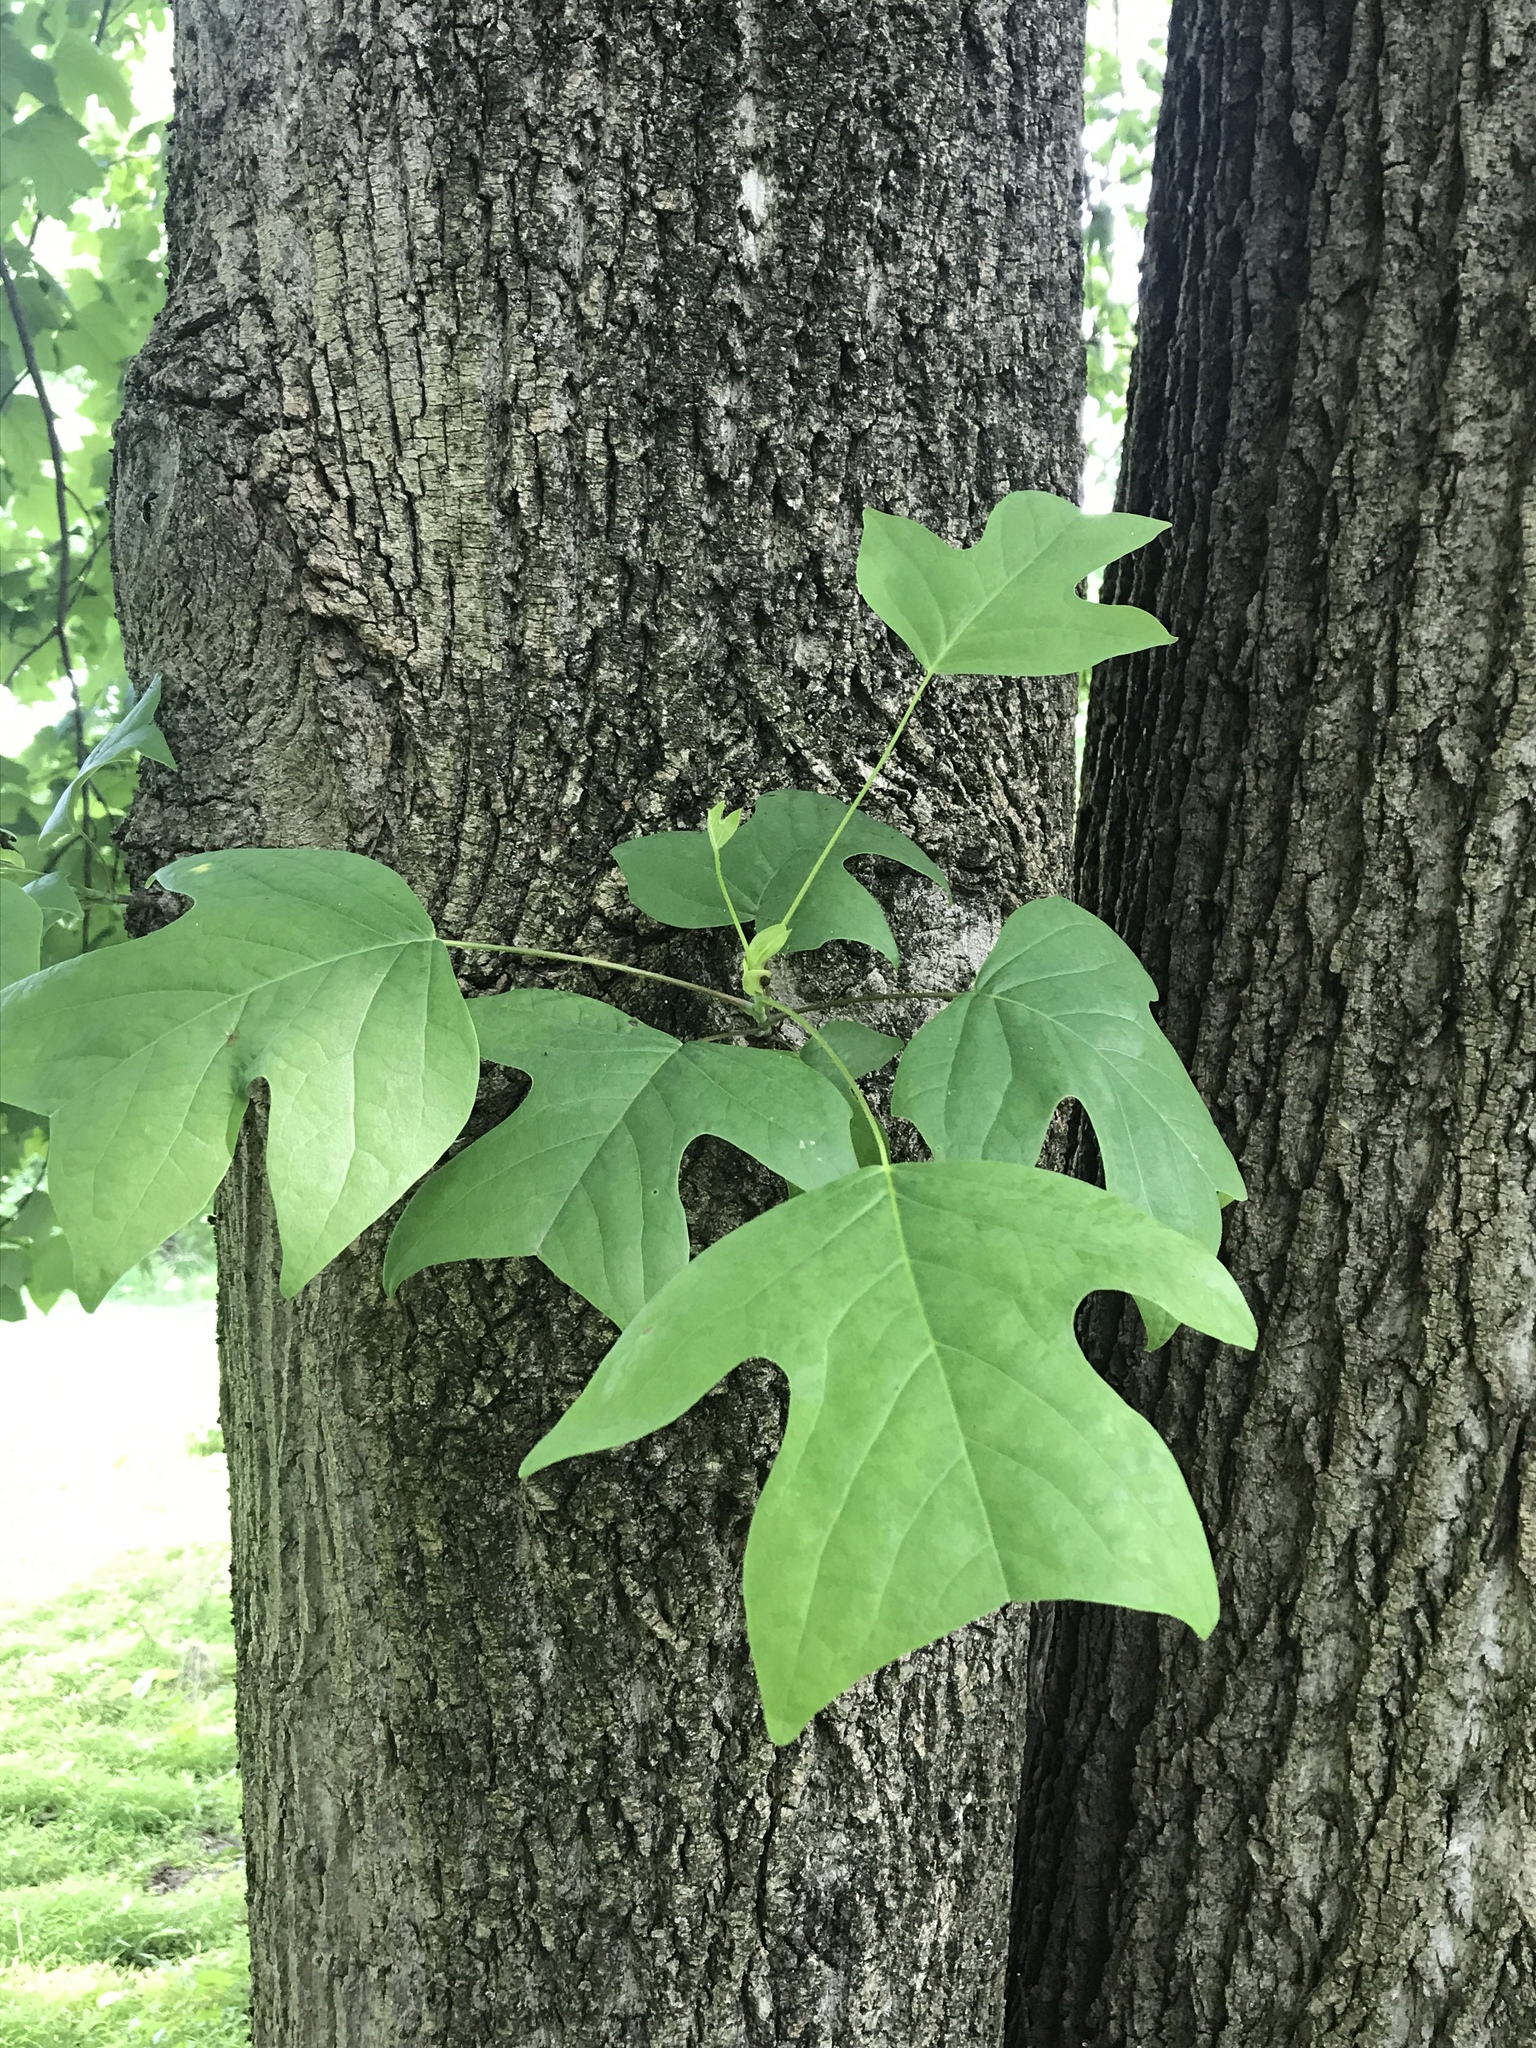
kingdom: Plantae
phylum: Tracheophyta
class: Magnoliopsida
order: Magnoliales
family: Magnoliaceae
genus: Liriodendron
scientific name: Liriodendron tulipifera
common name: Tulip tree
